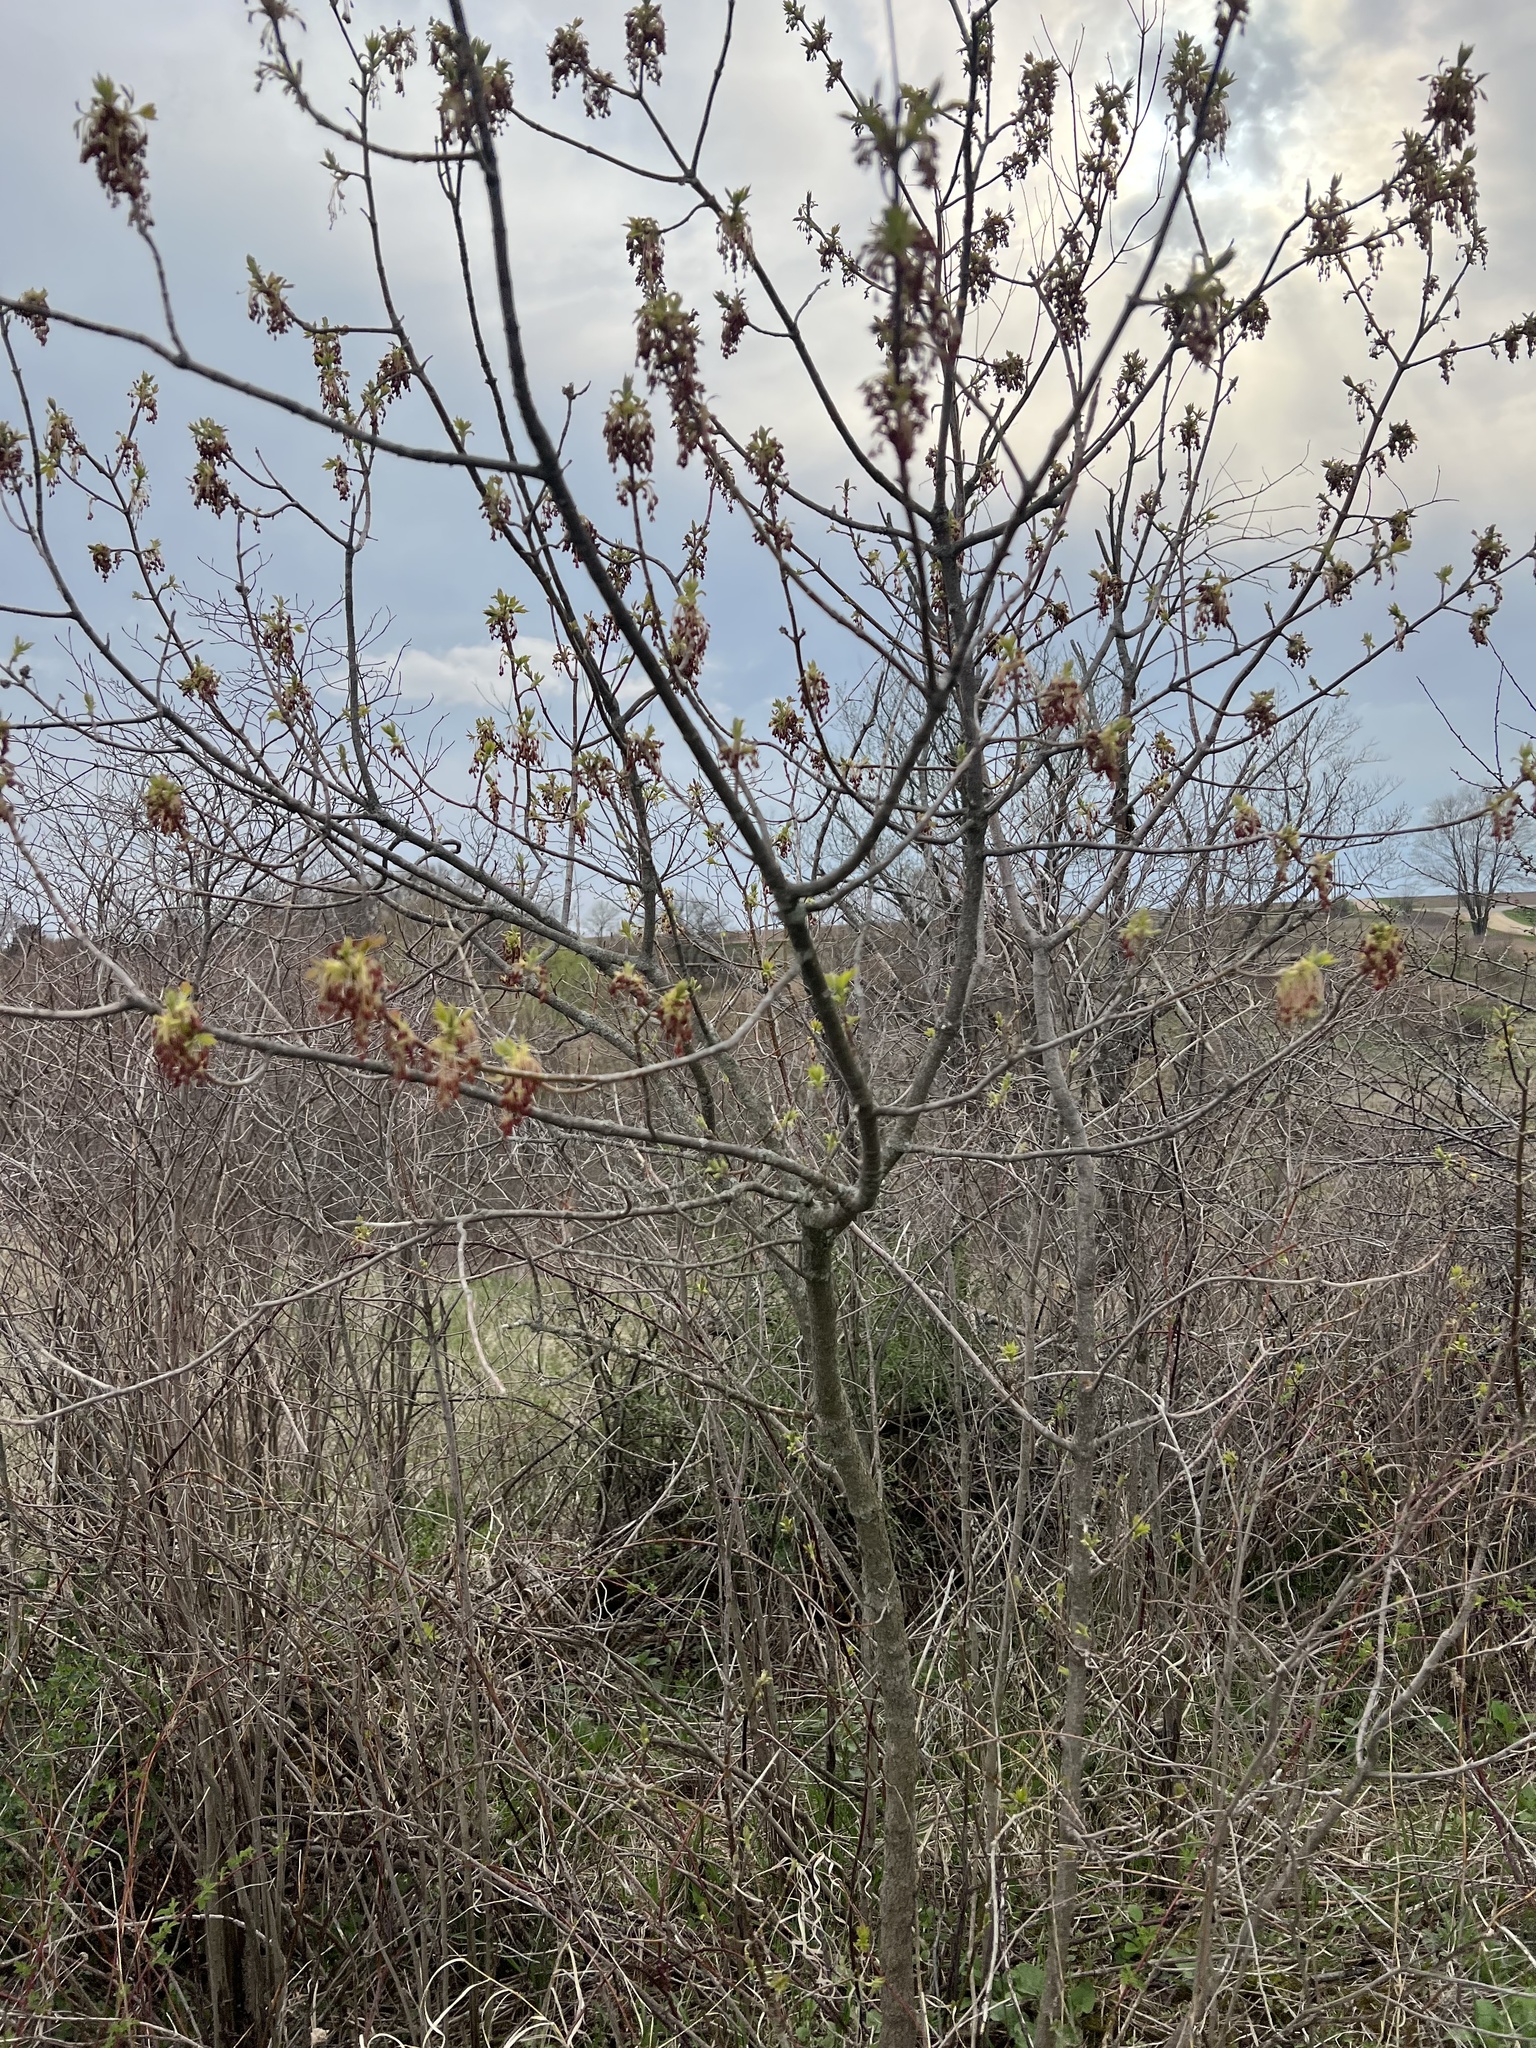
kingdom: Plantae
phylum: Tracheophyta
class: Magnoliopsida
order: Sapindales
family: Sapindaceae
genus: Acer
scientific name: Acer negundo
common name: Ashleaf maple
